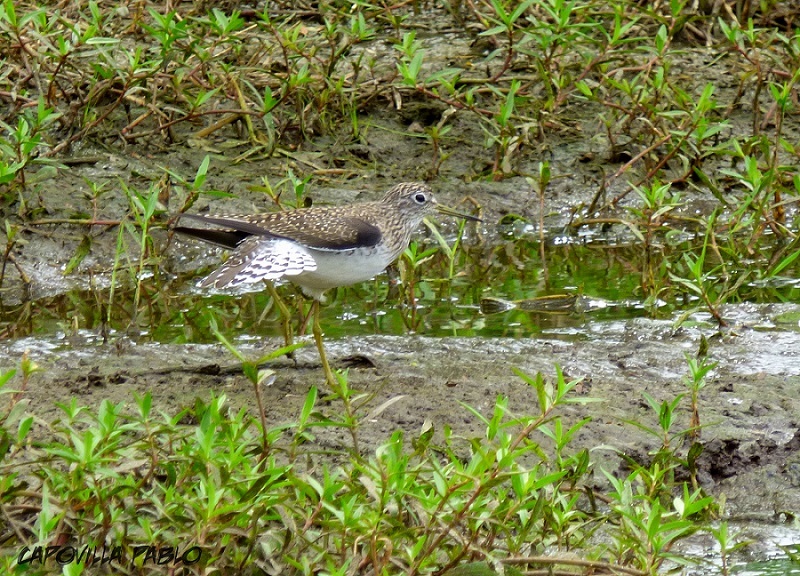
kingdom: Animalia
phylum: Chordata
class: Aves
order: Charadriiformes
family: Scolopacidae
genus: Tringa
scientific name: Tringa solitaria
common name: Solitary sandpiper
